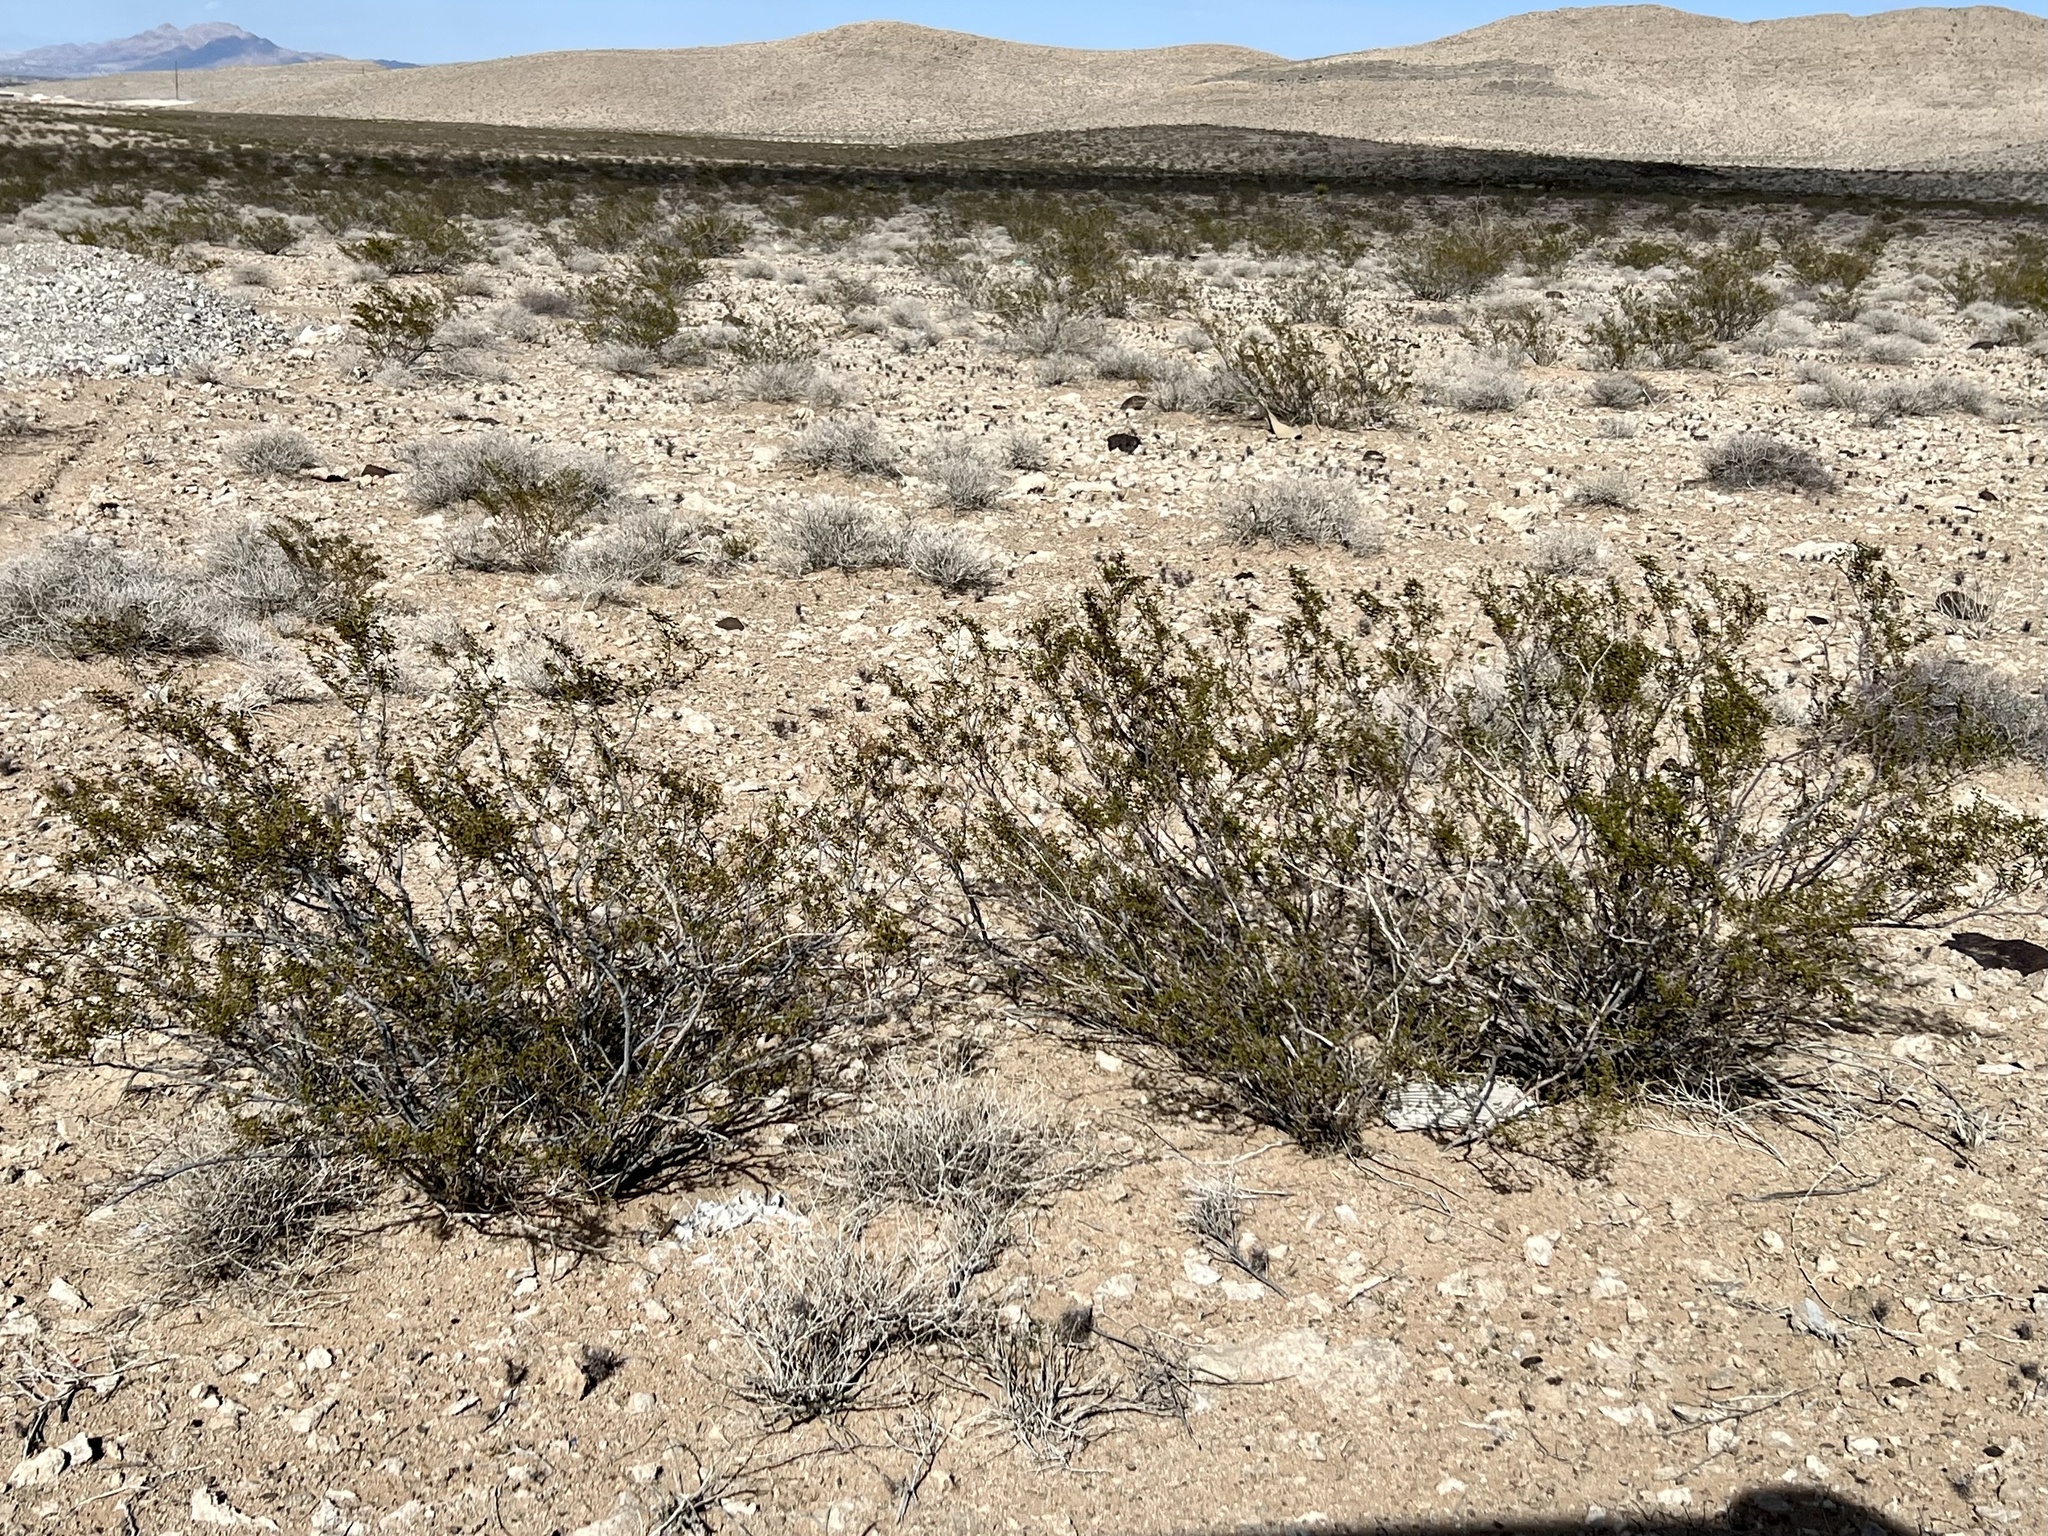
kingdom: Plantae
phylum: Tracheophyta
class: Magnoliopsida
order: Zygophyllales
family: Zygophyllaceae
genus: Larrea
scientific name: Larrea tridentata
